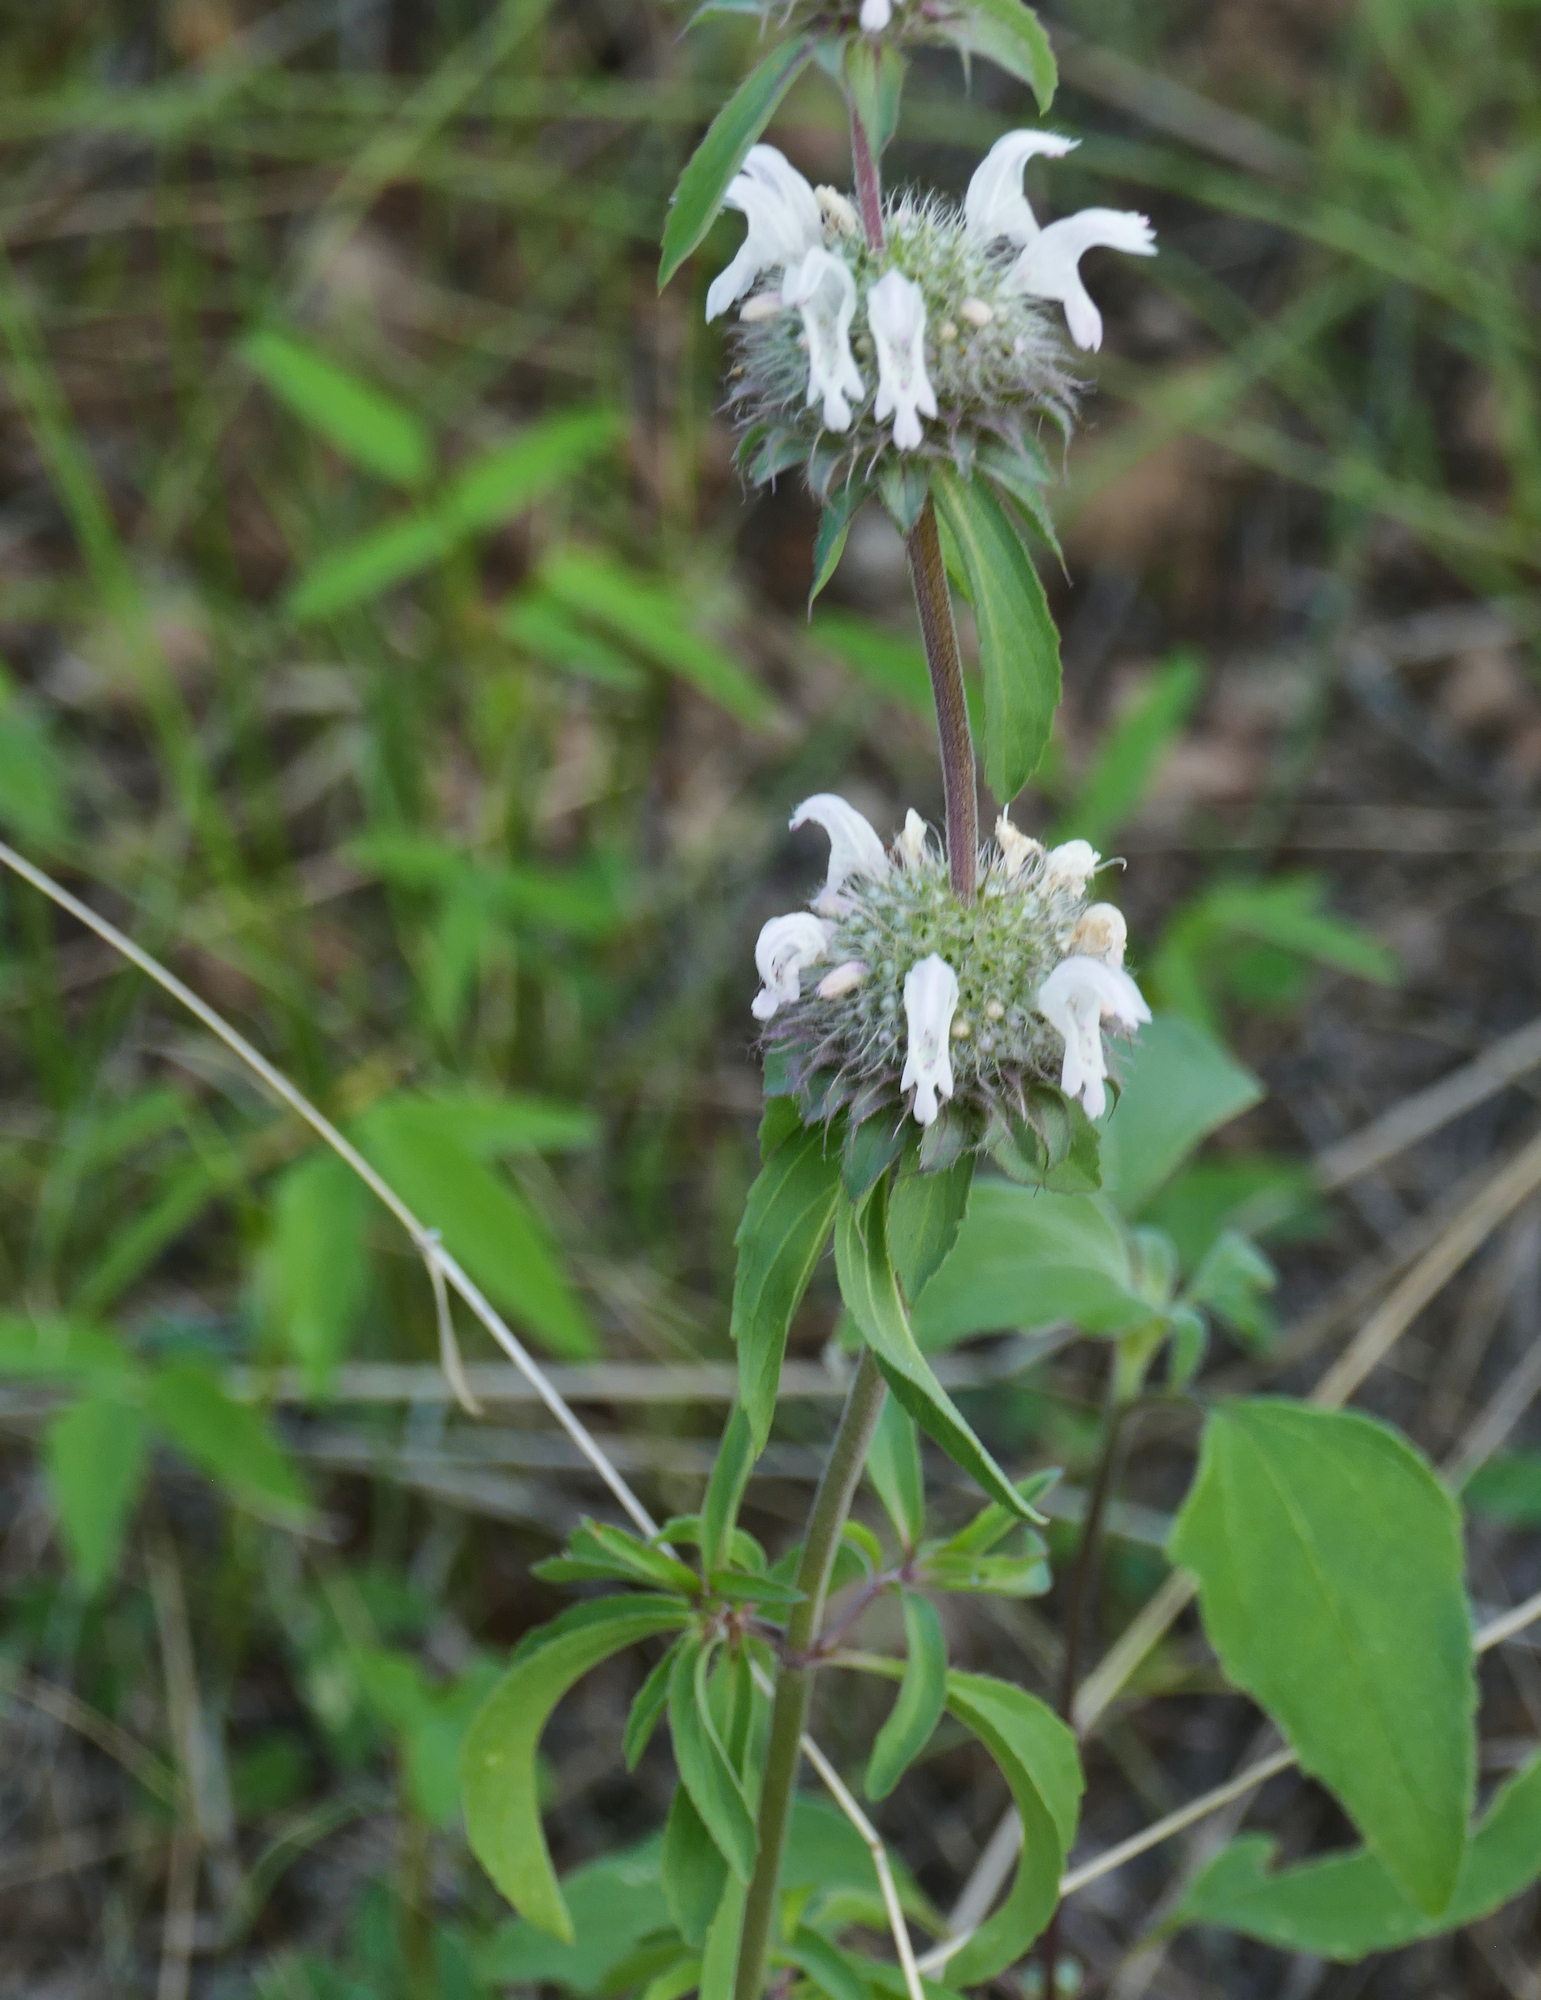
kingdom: Plantae
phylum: Tracheophyta
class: Magnoliopsida
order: Lamiales
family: Lamiaceae
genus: Monarda
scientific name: Monarda pectinata
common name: Plains beebalm
